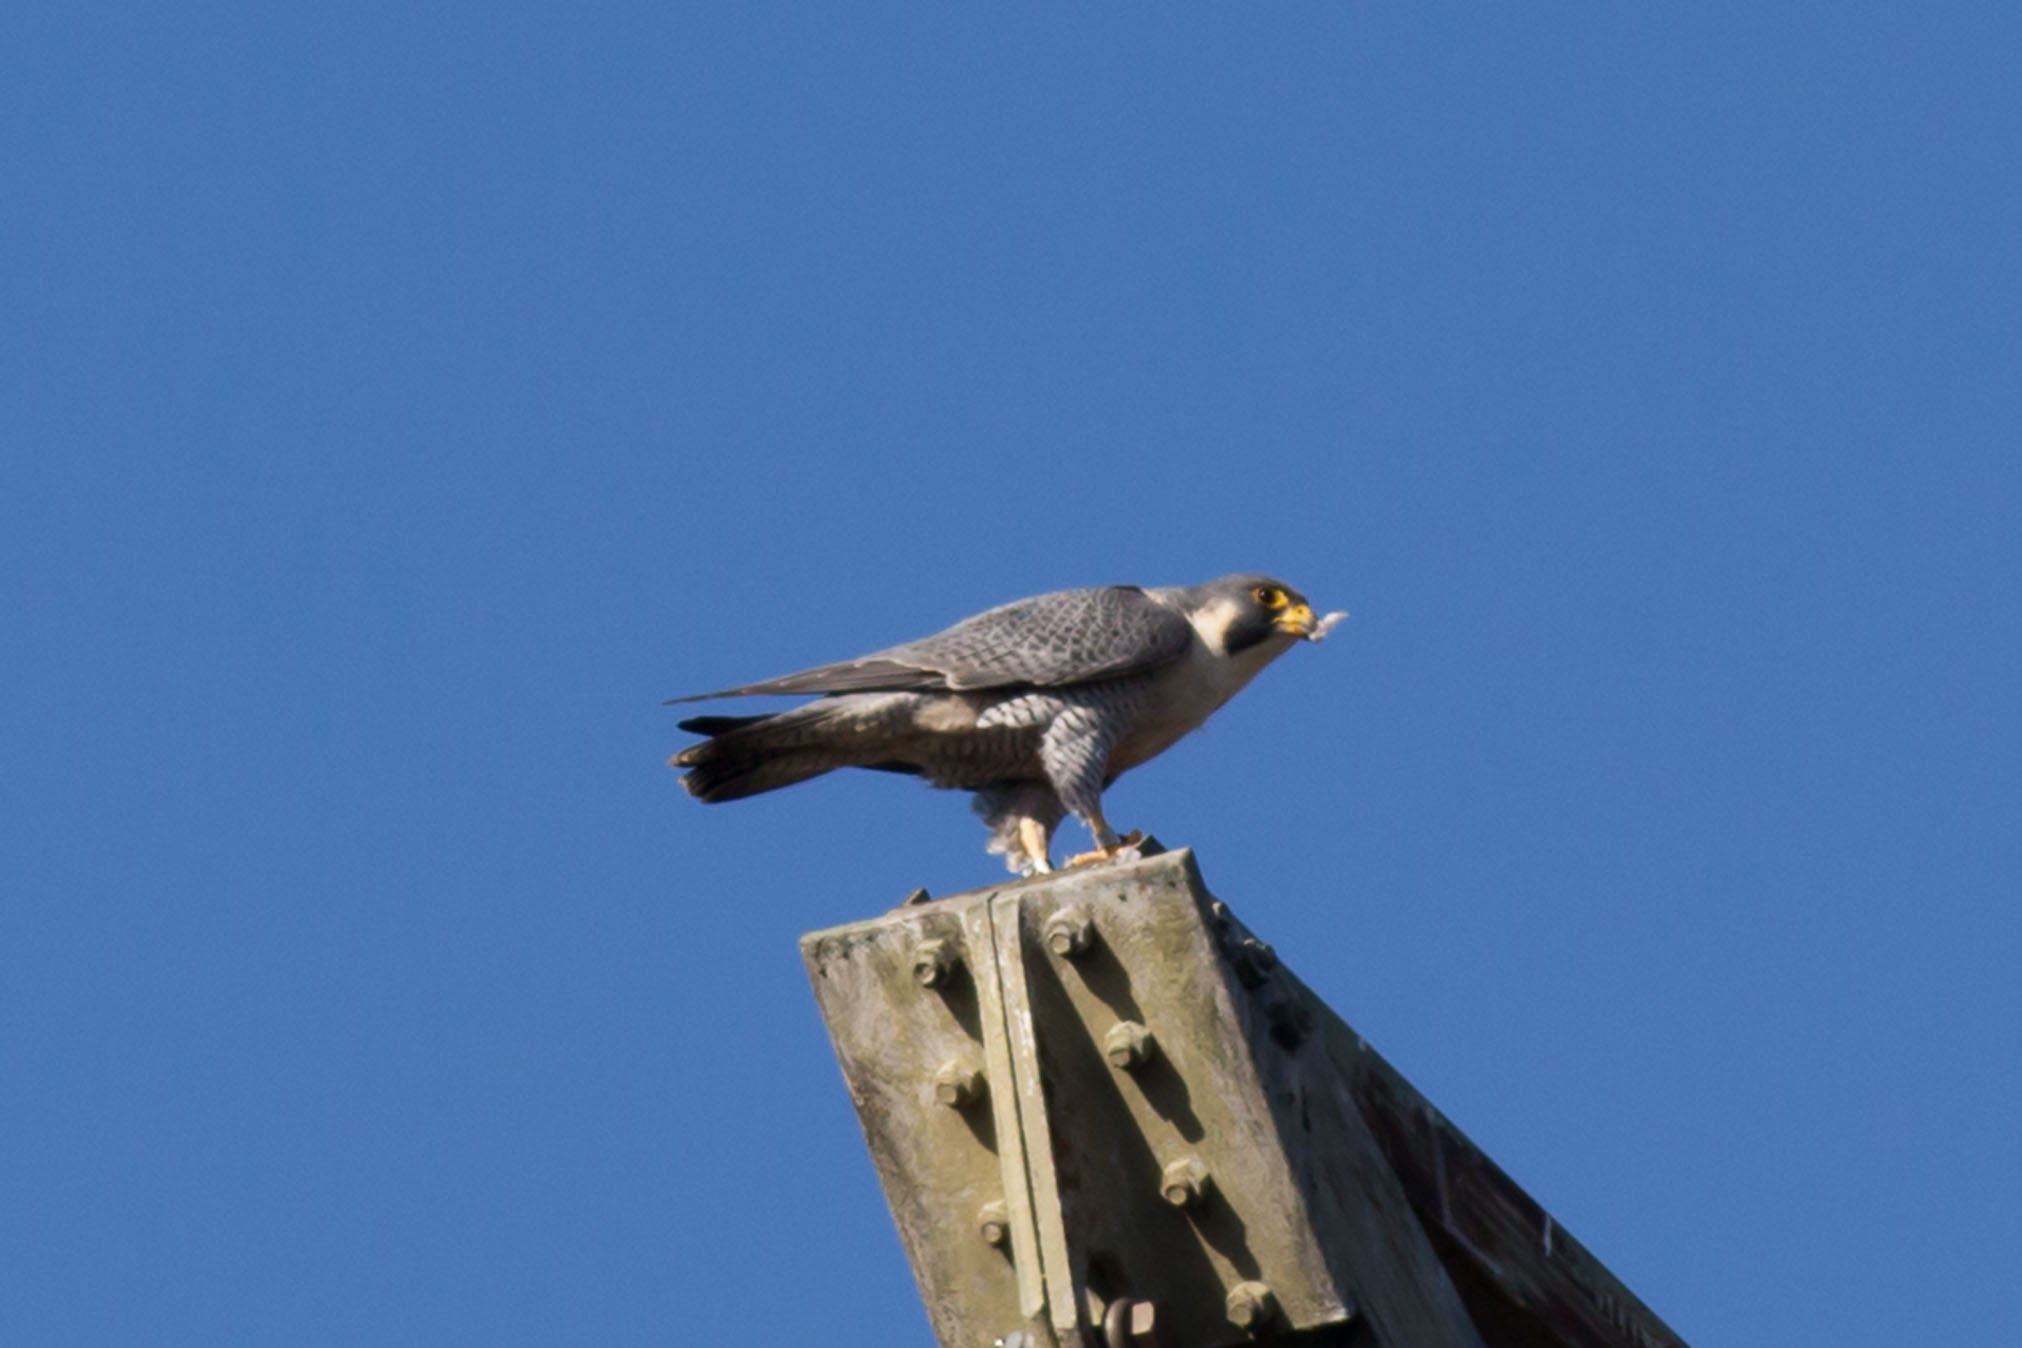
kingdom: Animalia
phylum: Chordata
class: Aves
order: Falconiformes
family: Falconidae
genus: Falco
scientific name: Falco peregrinus
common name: Peregrine falcon
